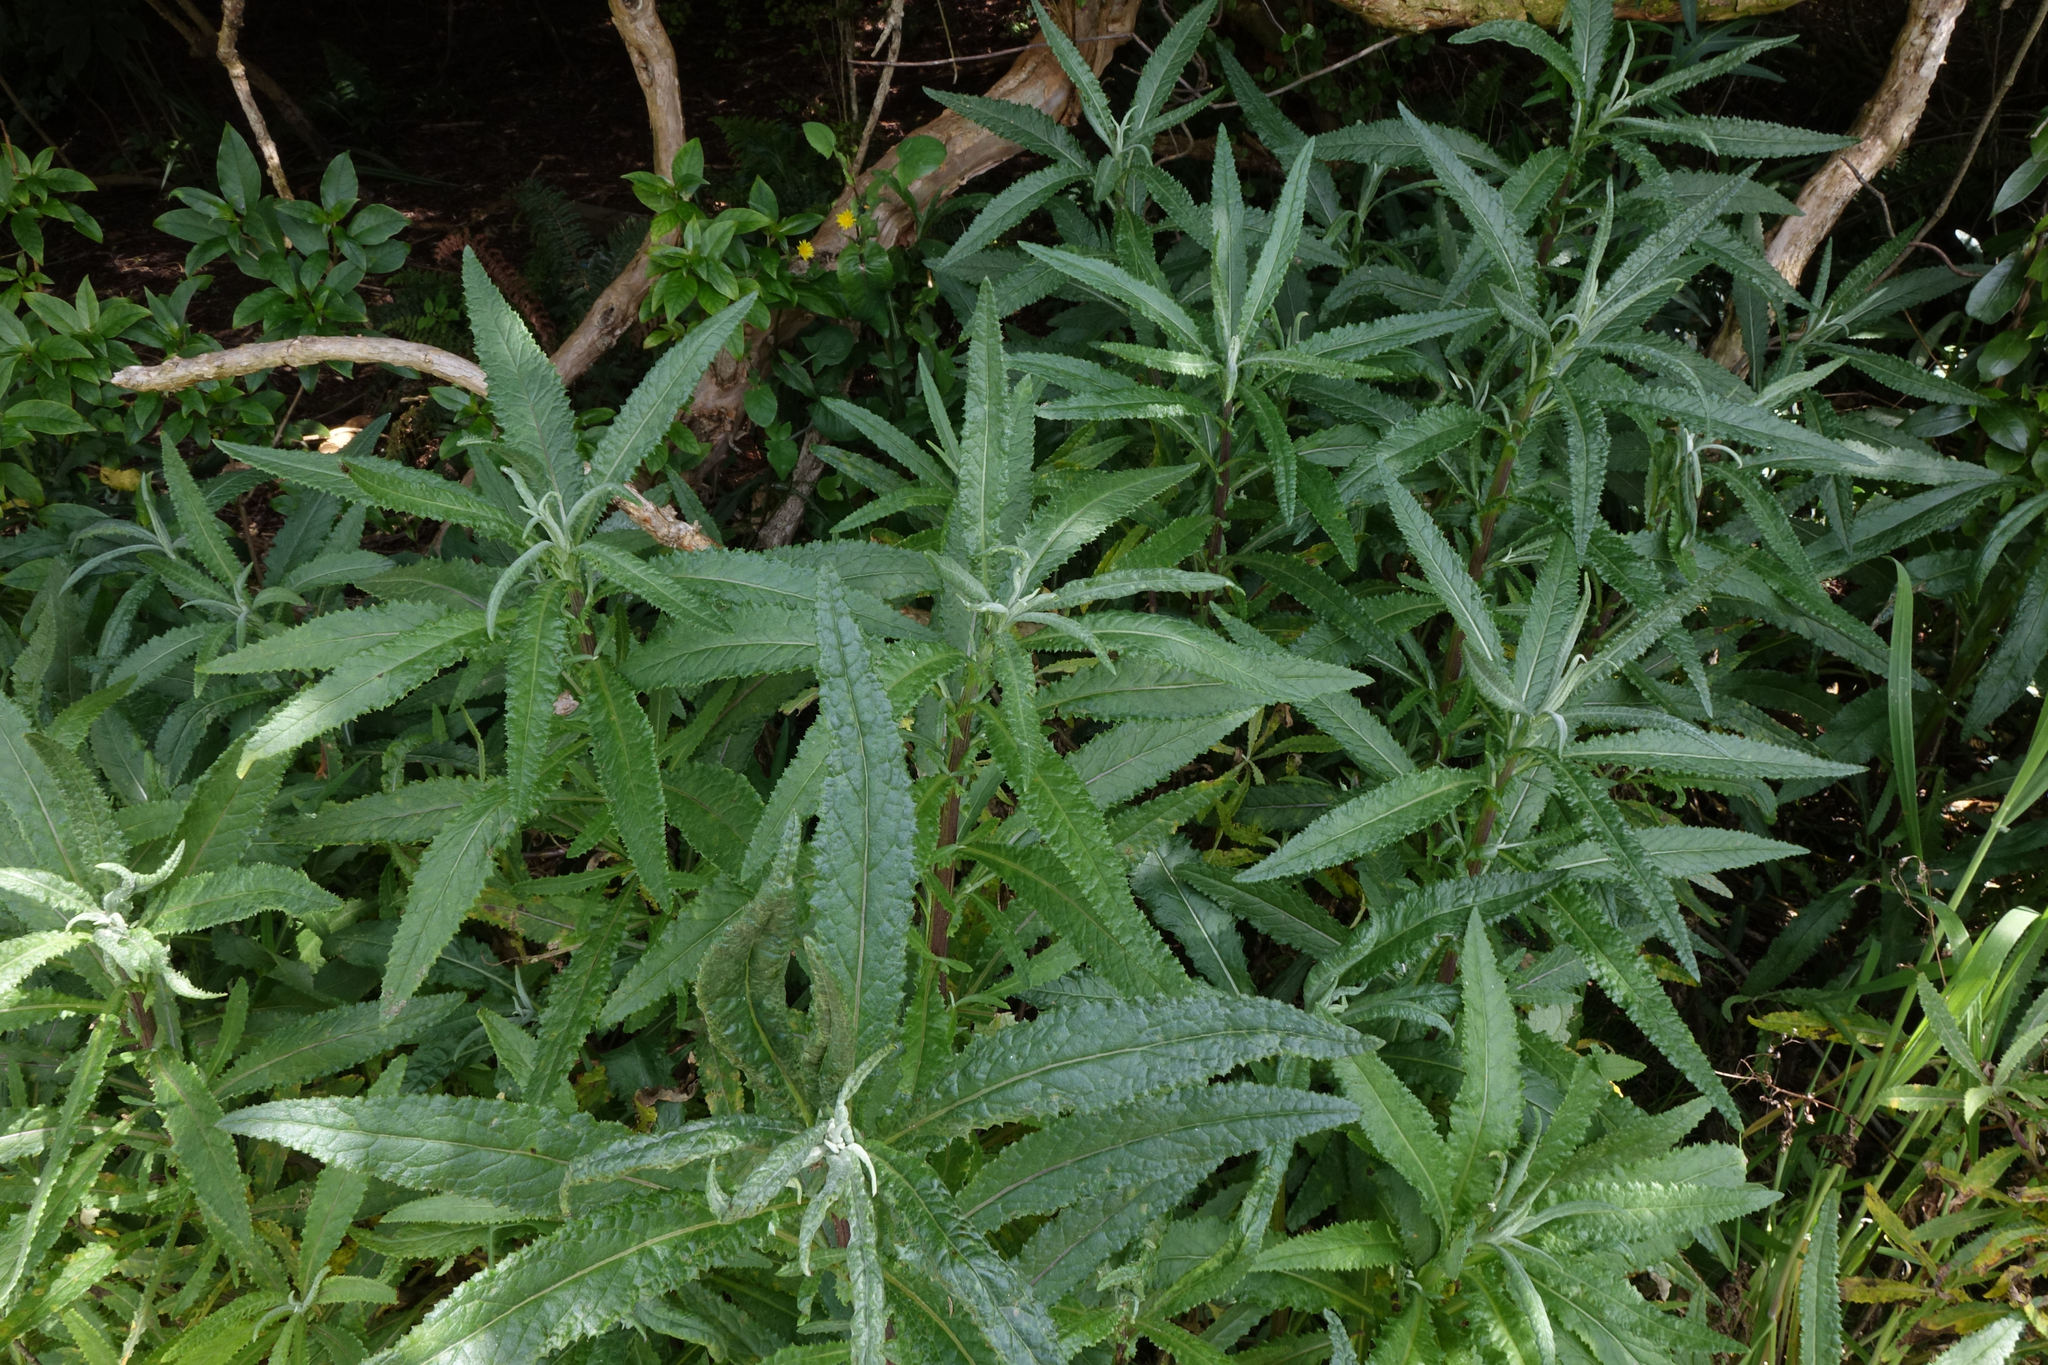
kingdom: Plantae
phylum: Tracheophyta
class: Magnoliopsida
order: Asterales
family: Asteraceae
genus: Senecio
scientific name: Senecio minimus
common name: Toothed fireweed
